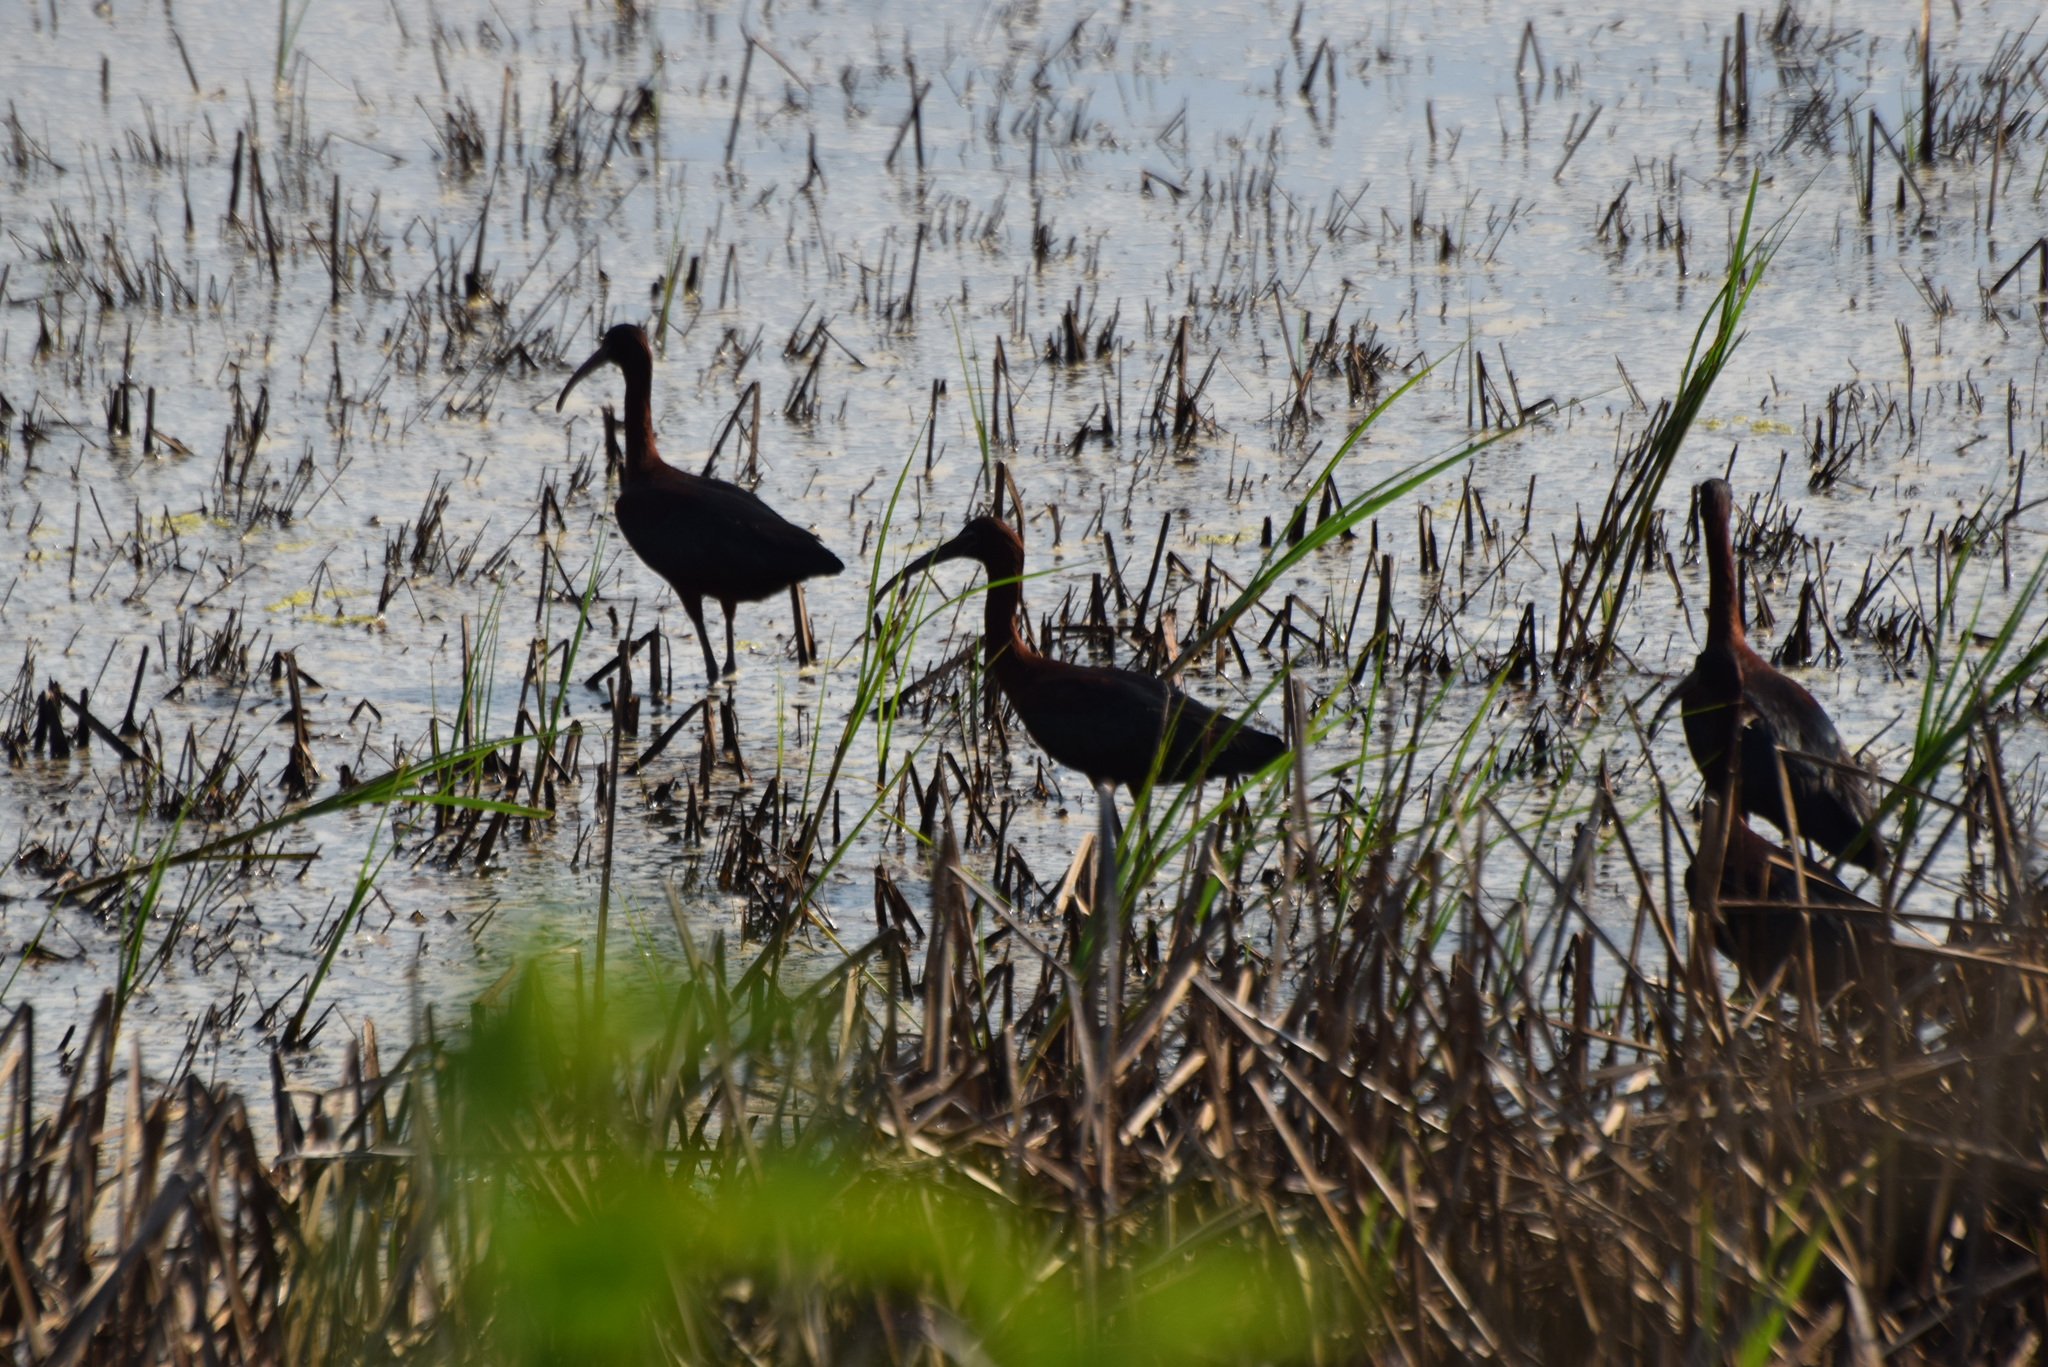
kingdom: Animalia
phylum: Chordata
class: Aves
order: Pelecaniformes
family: Threskiornithidae
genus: Plegadis
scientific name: Plegadis falcinellus
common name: Glossy ibis
